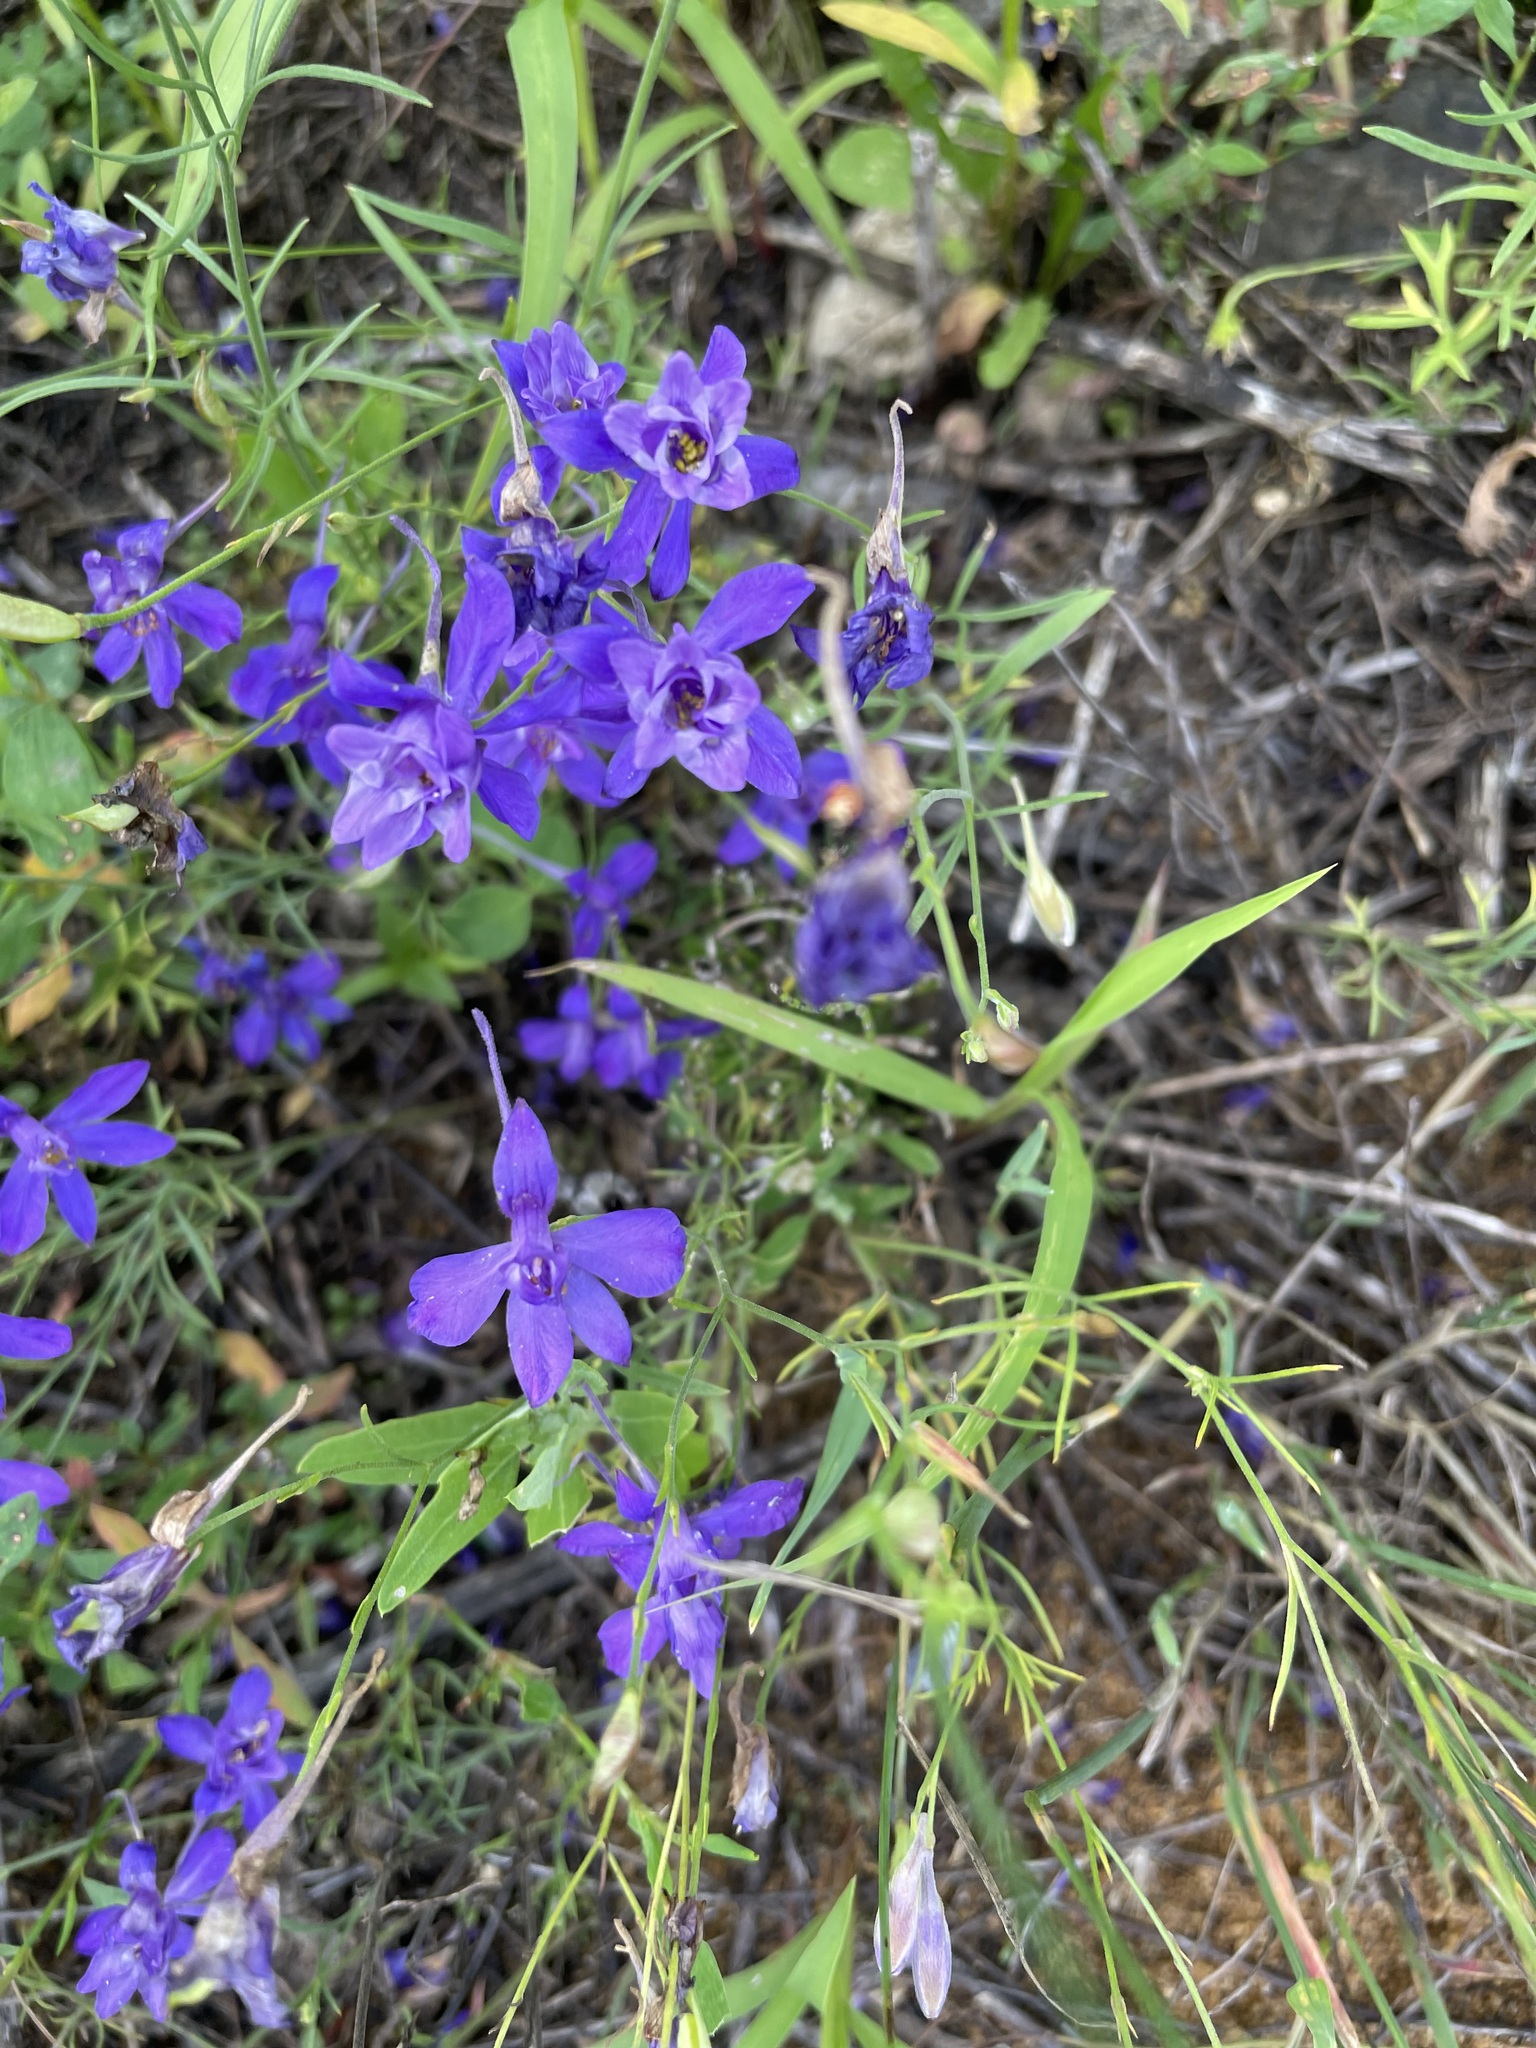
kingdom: Plantae
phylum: Tracheophyta
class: Magnoliopsida
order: Ranunculales
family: Ranunculaceae
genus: Delphinium
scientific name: Delphinium consolida
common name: Branching larkspur
